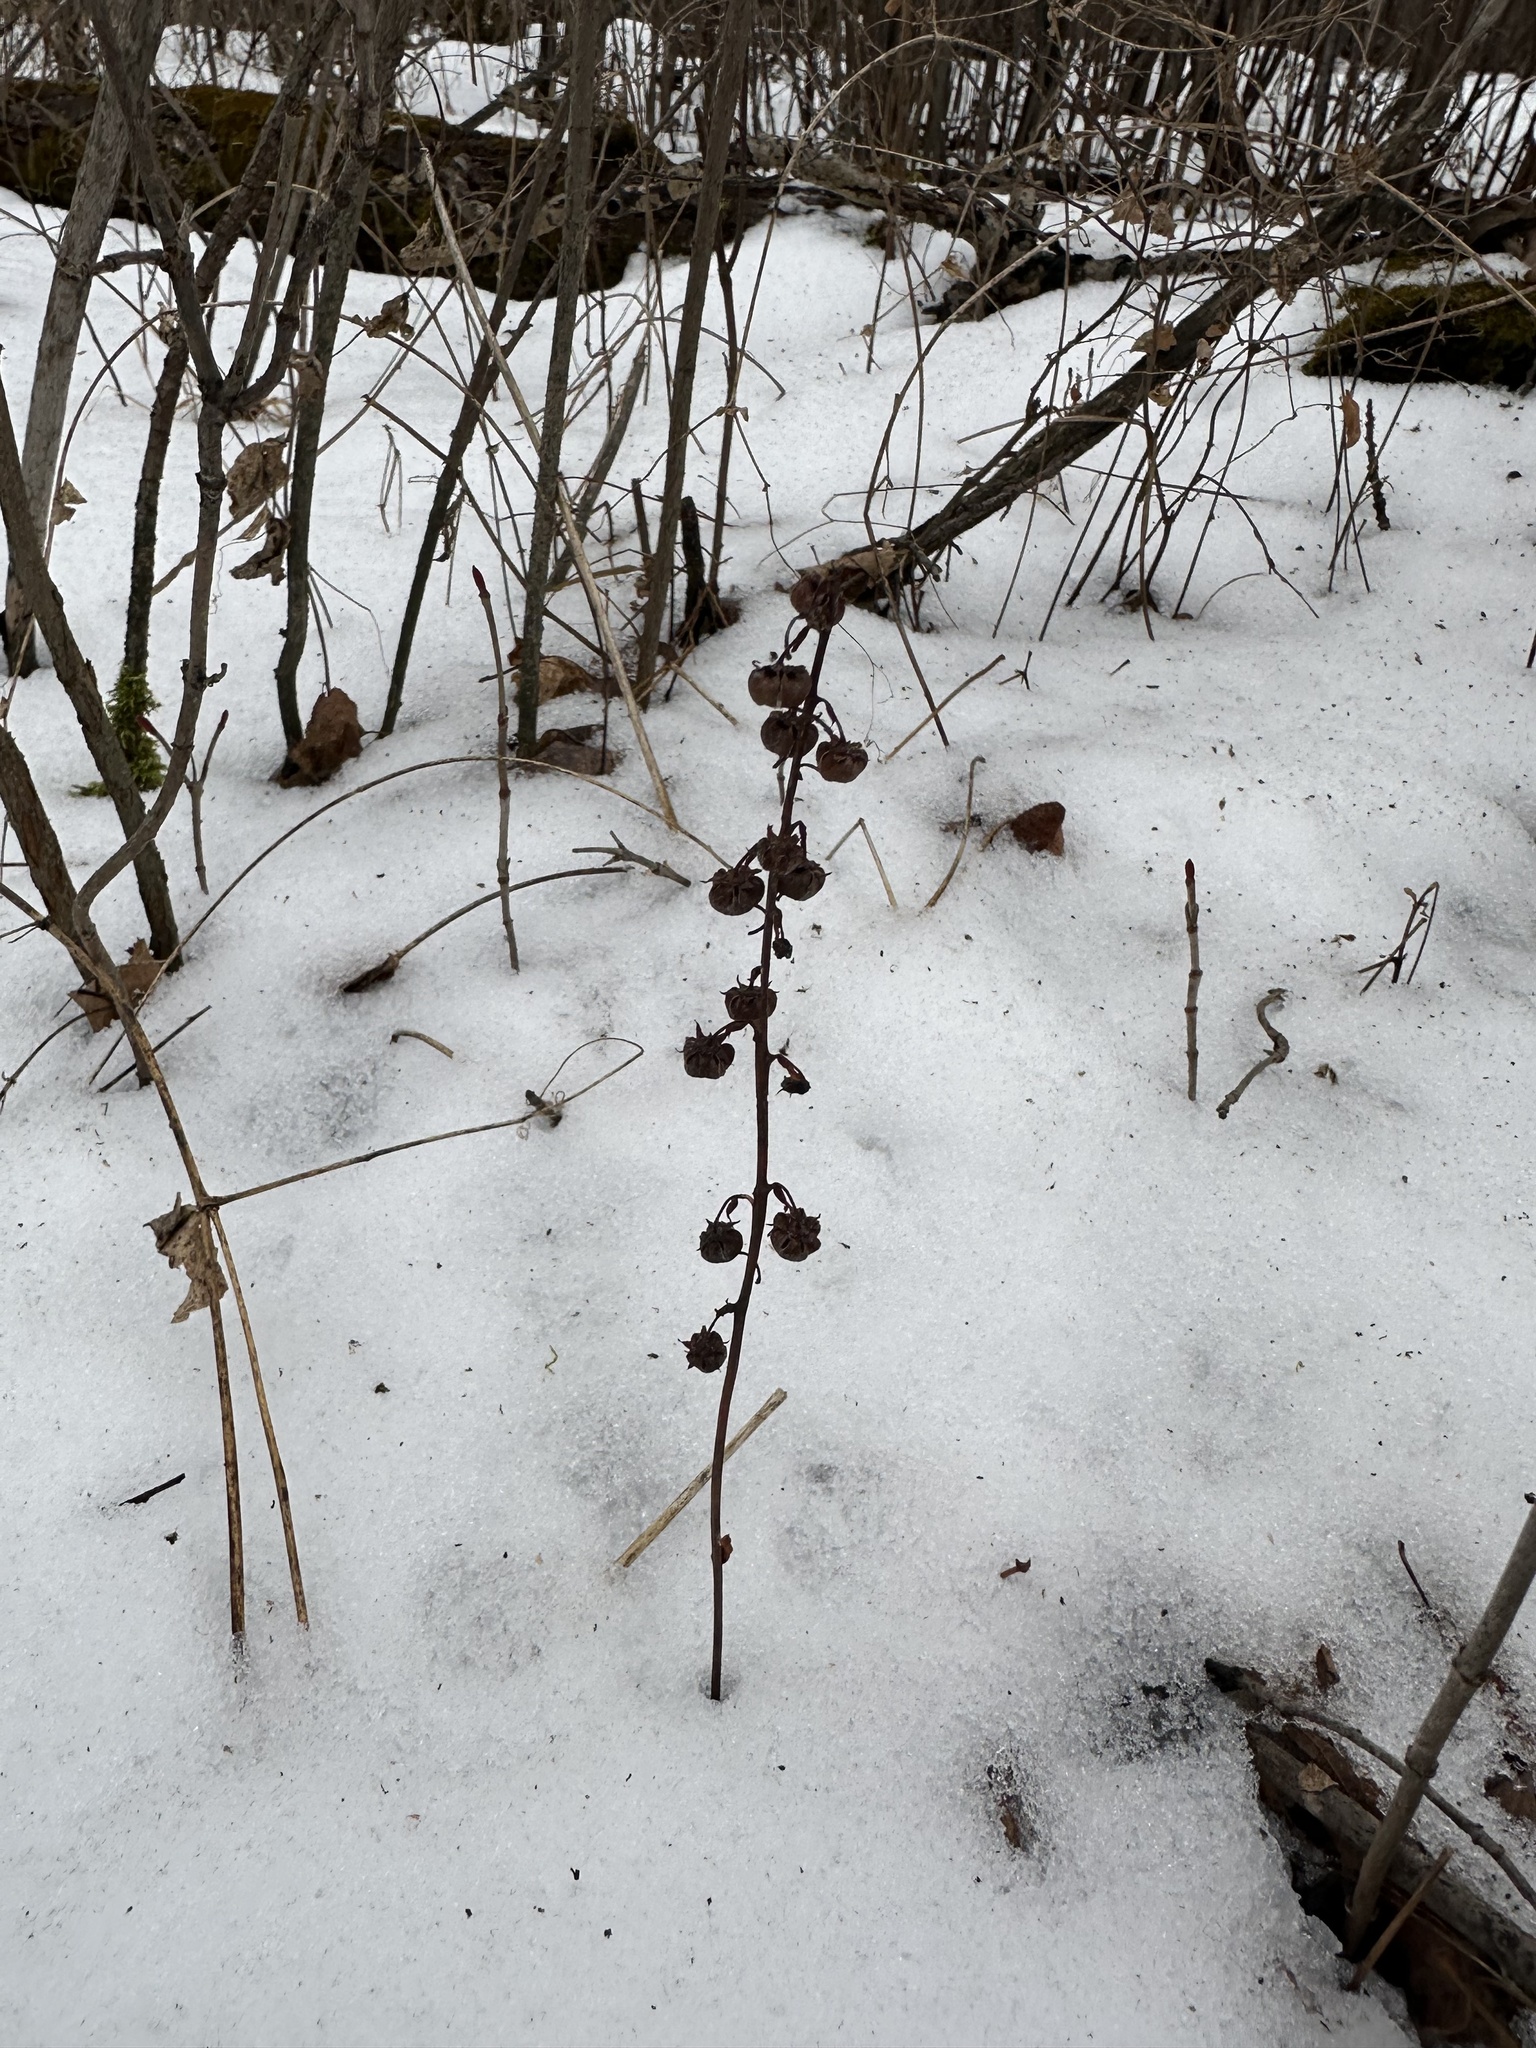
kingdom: Plantae
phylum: Tracheophyta
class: Magnoliopsida
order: Ericales
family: Ericaceae
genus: Pyrola
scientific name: Pyrola asarifolia
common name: Bog wintergreen
